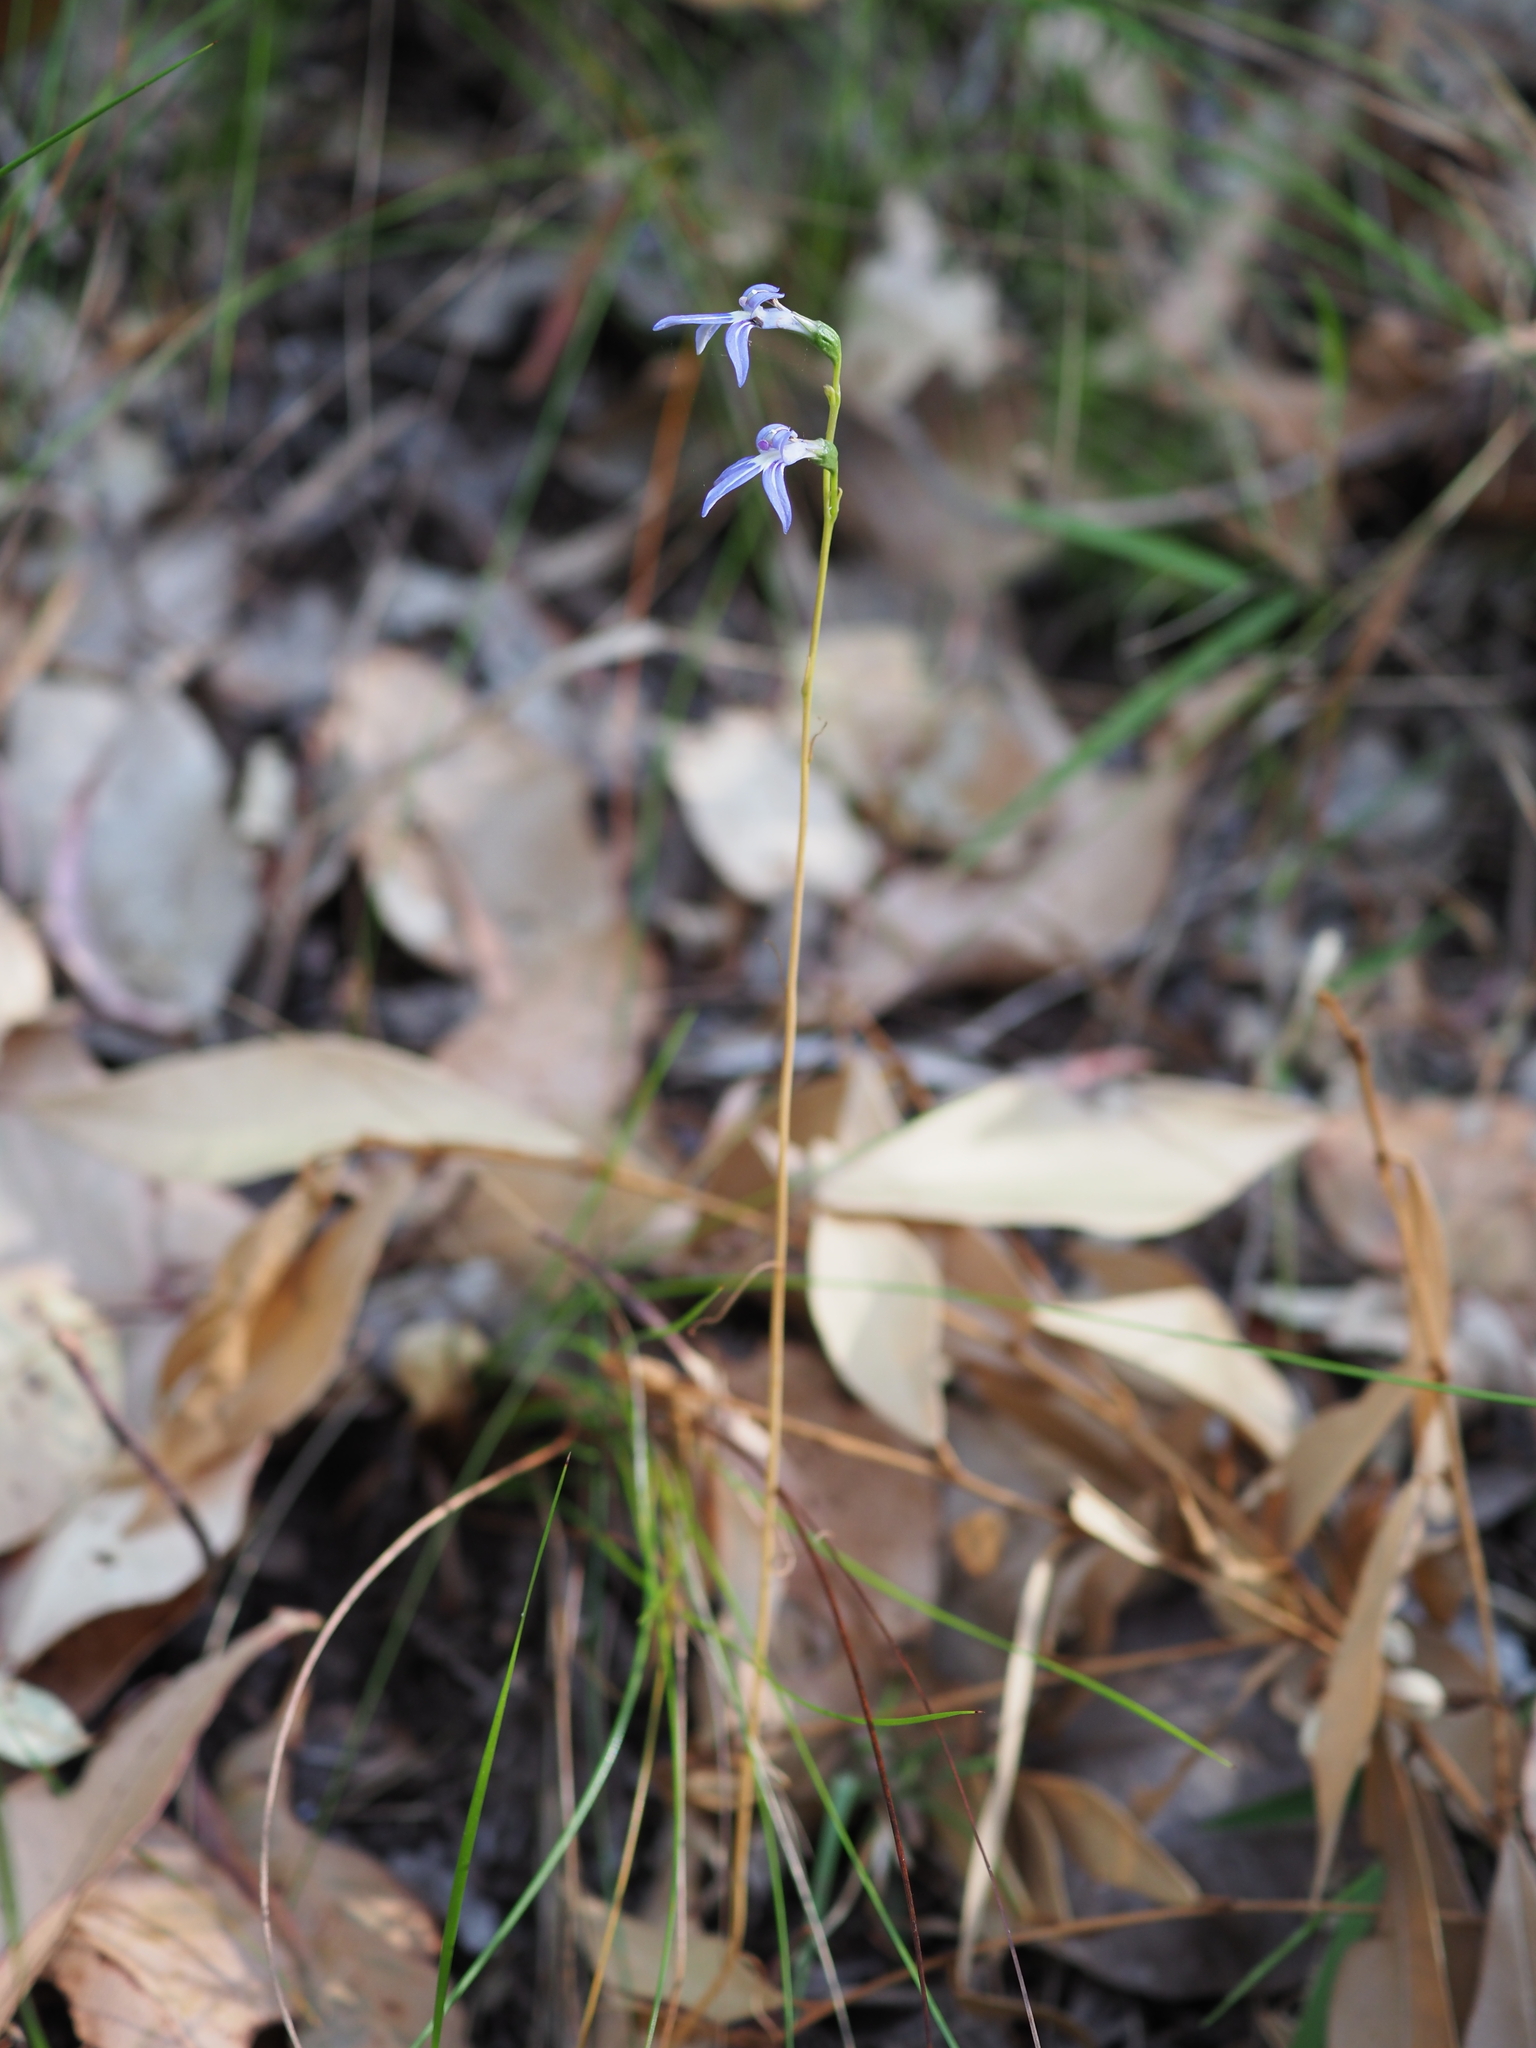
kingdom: Plantae
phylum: Tracheophyta
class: Magnoliopsida
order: Asterales
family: Campanulaceae
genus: Lobelia
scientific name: Lobelia gibbosa
